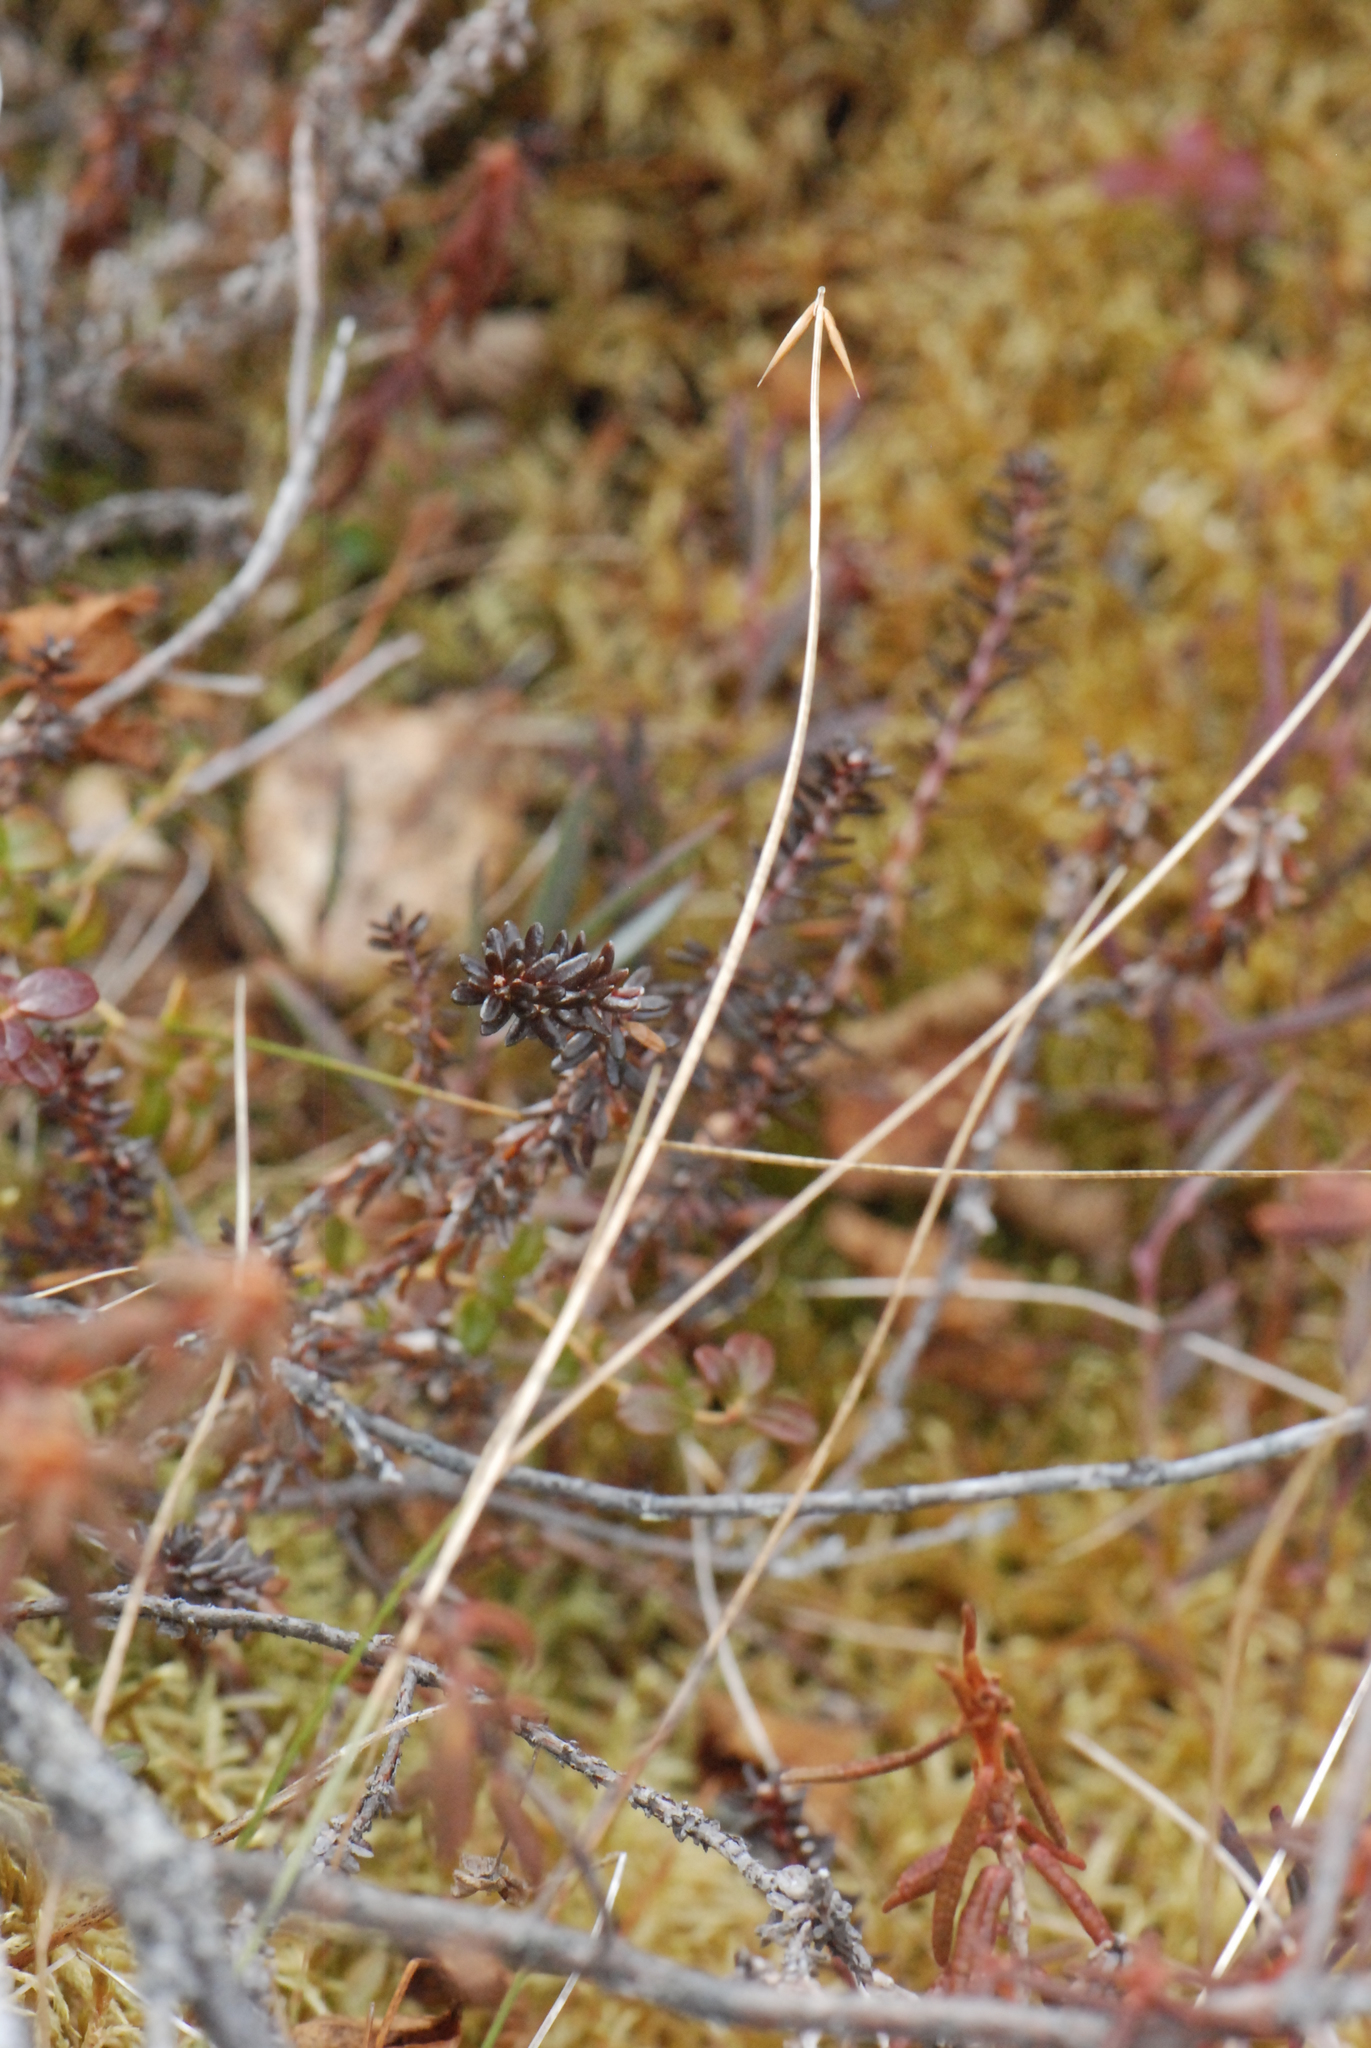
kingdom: Plantae
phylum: Tracheophyta
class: Liliopsida
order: Poales
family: Cyperaceae
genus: Carex
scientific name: Carex pauciflora
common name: Few-flowered sedge
